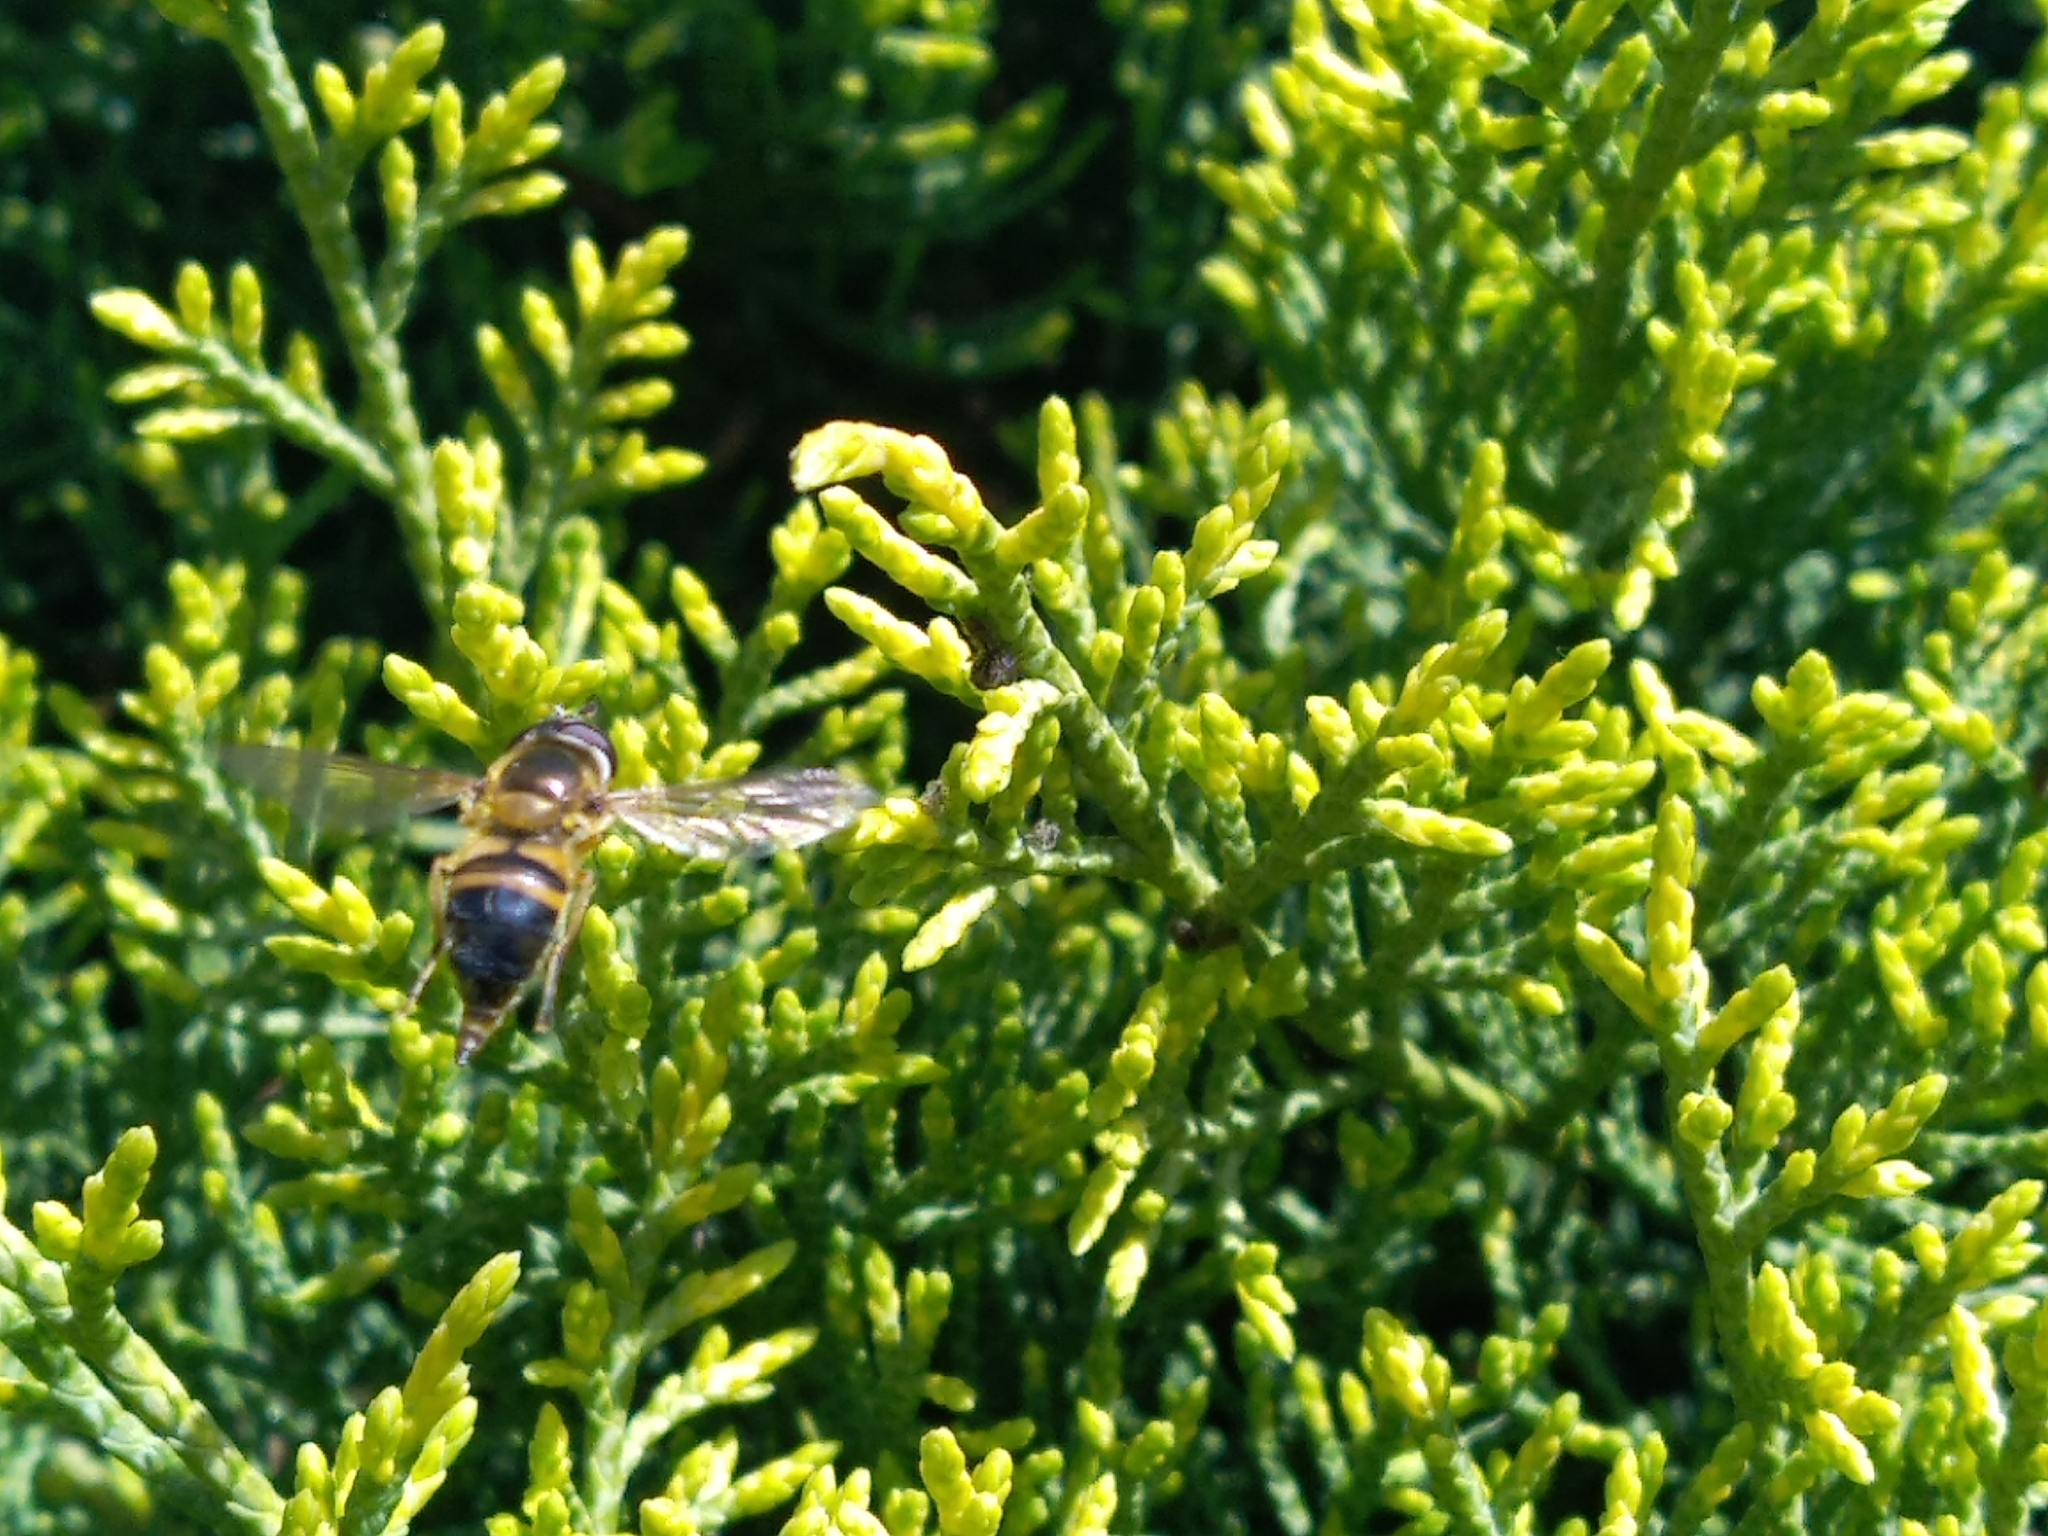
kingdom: Animalia
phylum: Arthropoda
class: Insecta
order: Diptera
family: Syrphidae
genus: Epistrophe
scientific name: Epistrophe eligans
